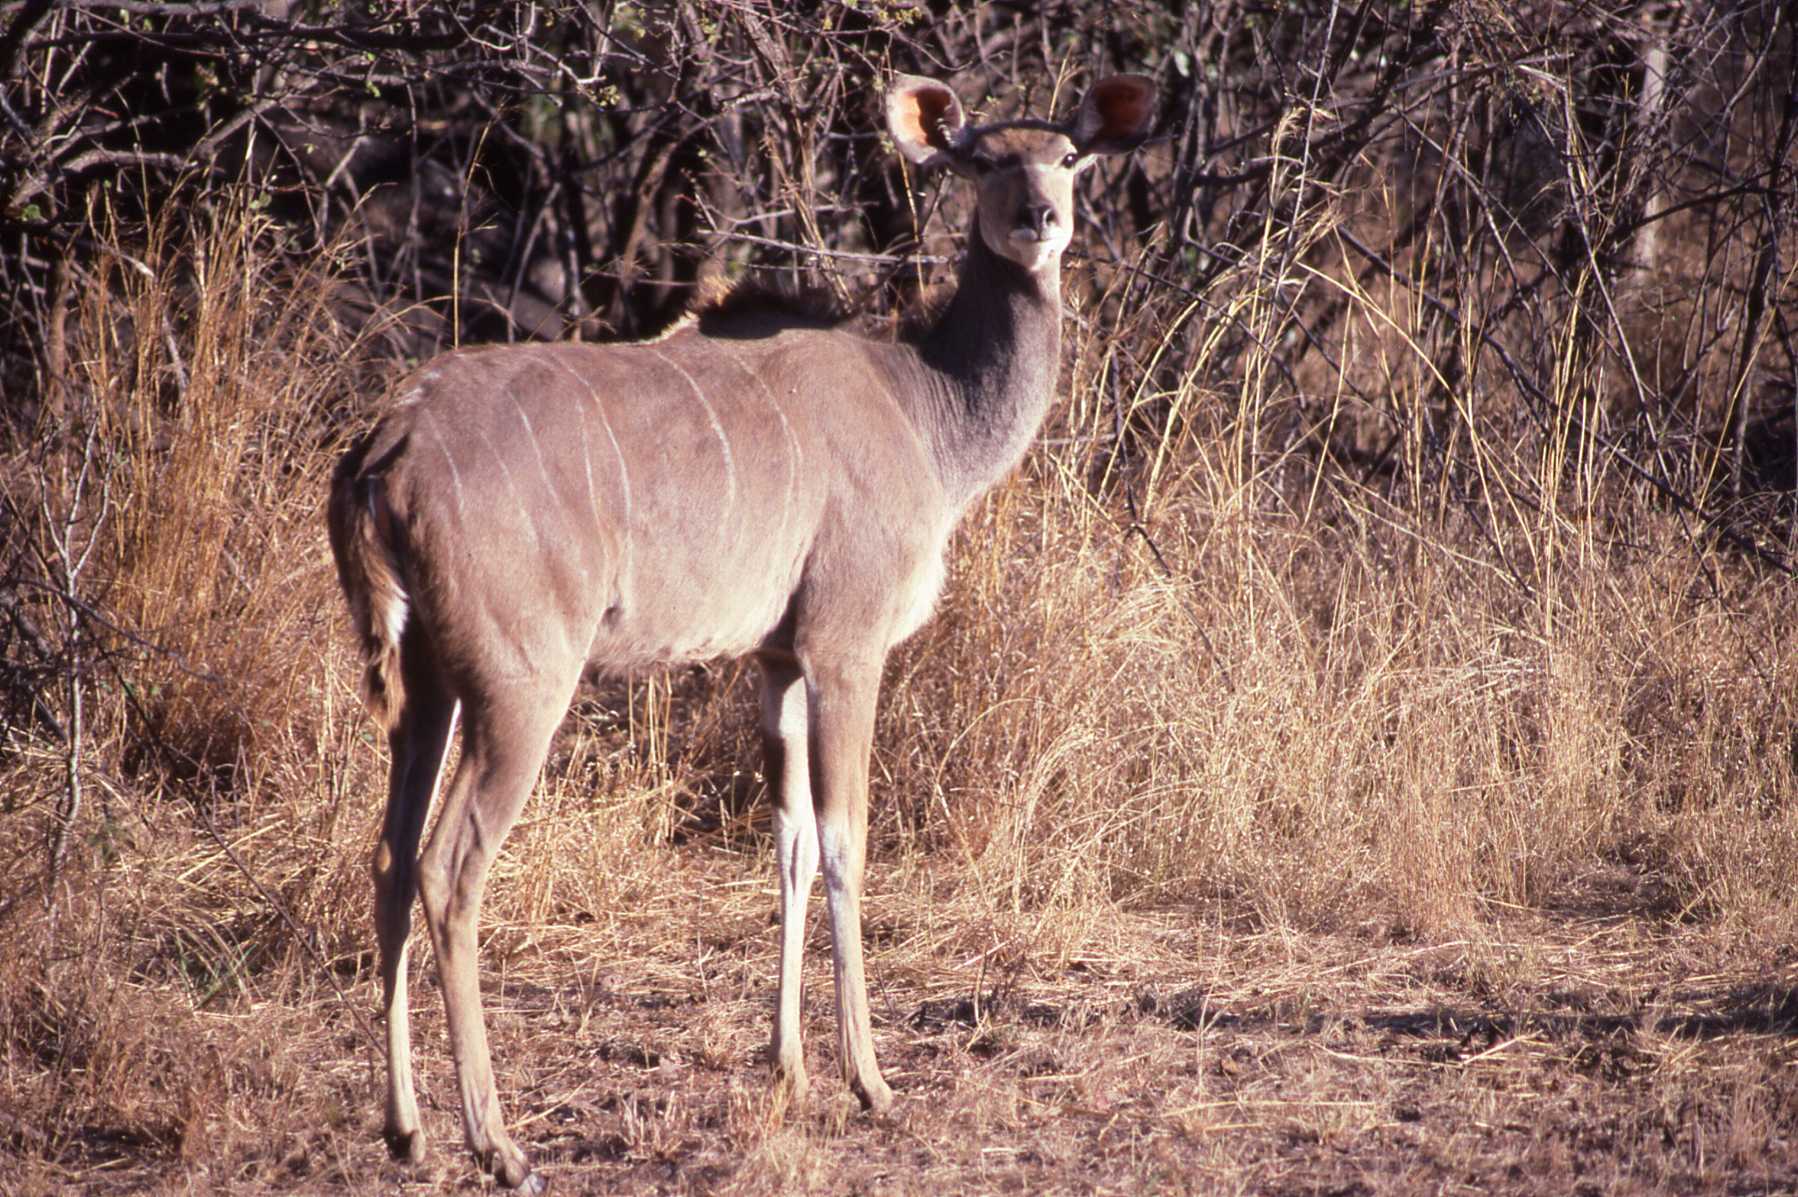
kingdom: Animalia
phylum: Chordata
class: Mammalia
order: Artiodactyla
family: Bovidae
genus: Tragelaphus
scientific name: Tragelaphus strepsiceros
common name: Greater kudu
